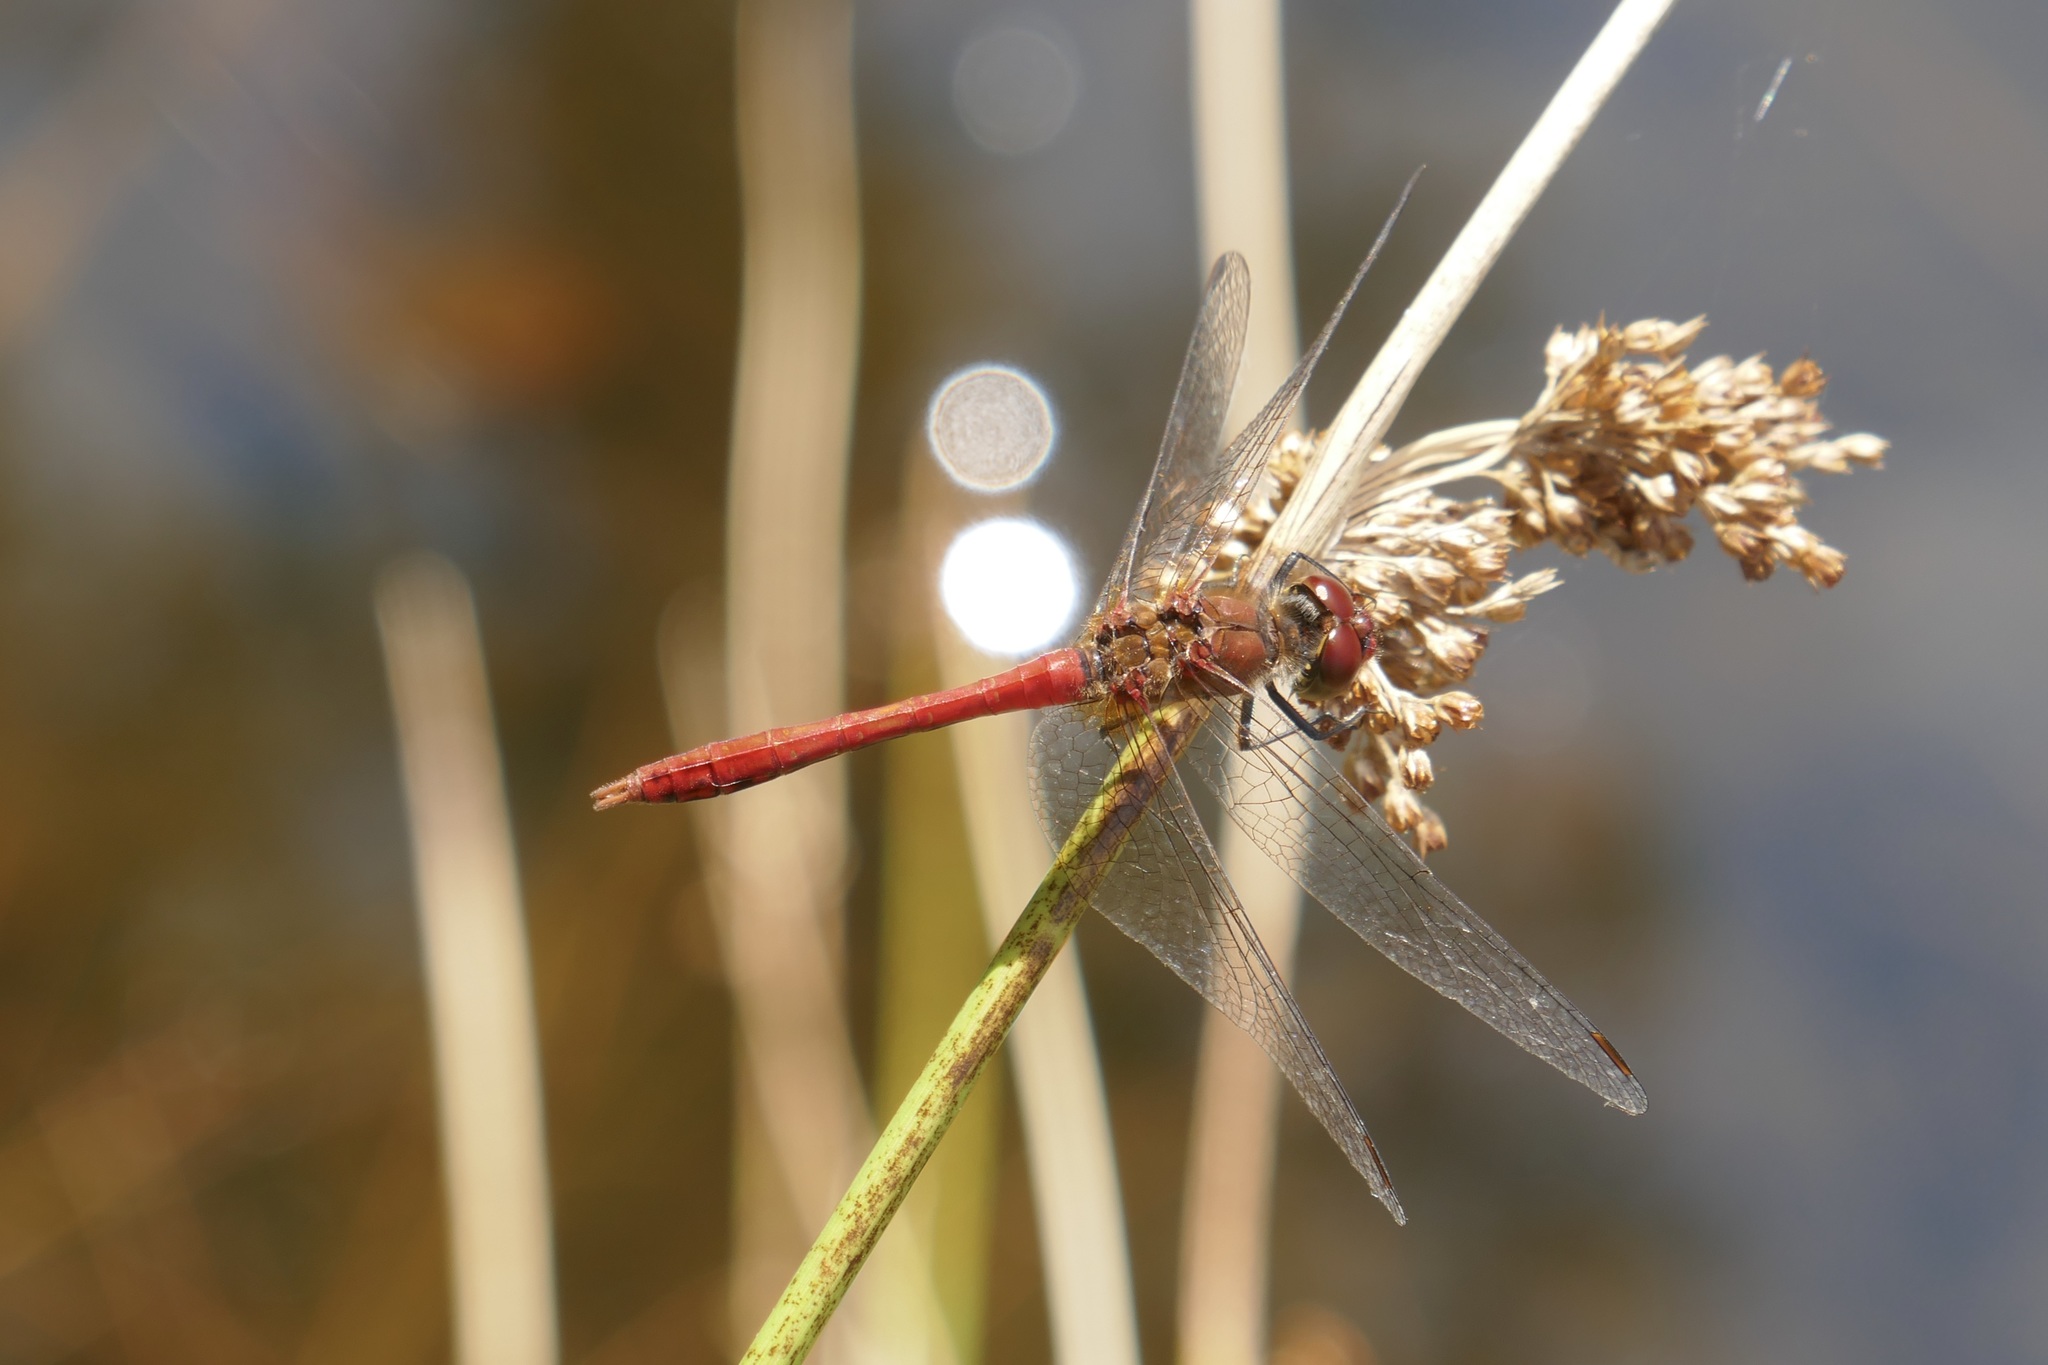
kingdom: Animalia
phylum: Arthropoda
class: Insecta
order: Odonata
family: Libellulidae
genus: Sympetrum
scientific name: Sympetrum sanguineum
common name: Ruddy darter
